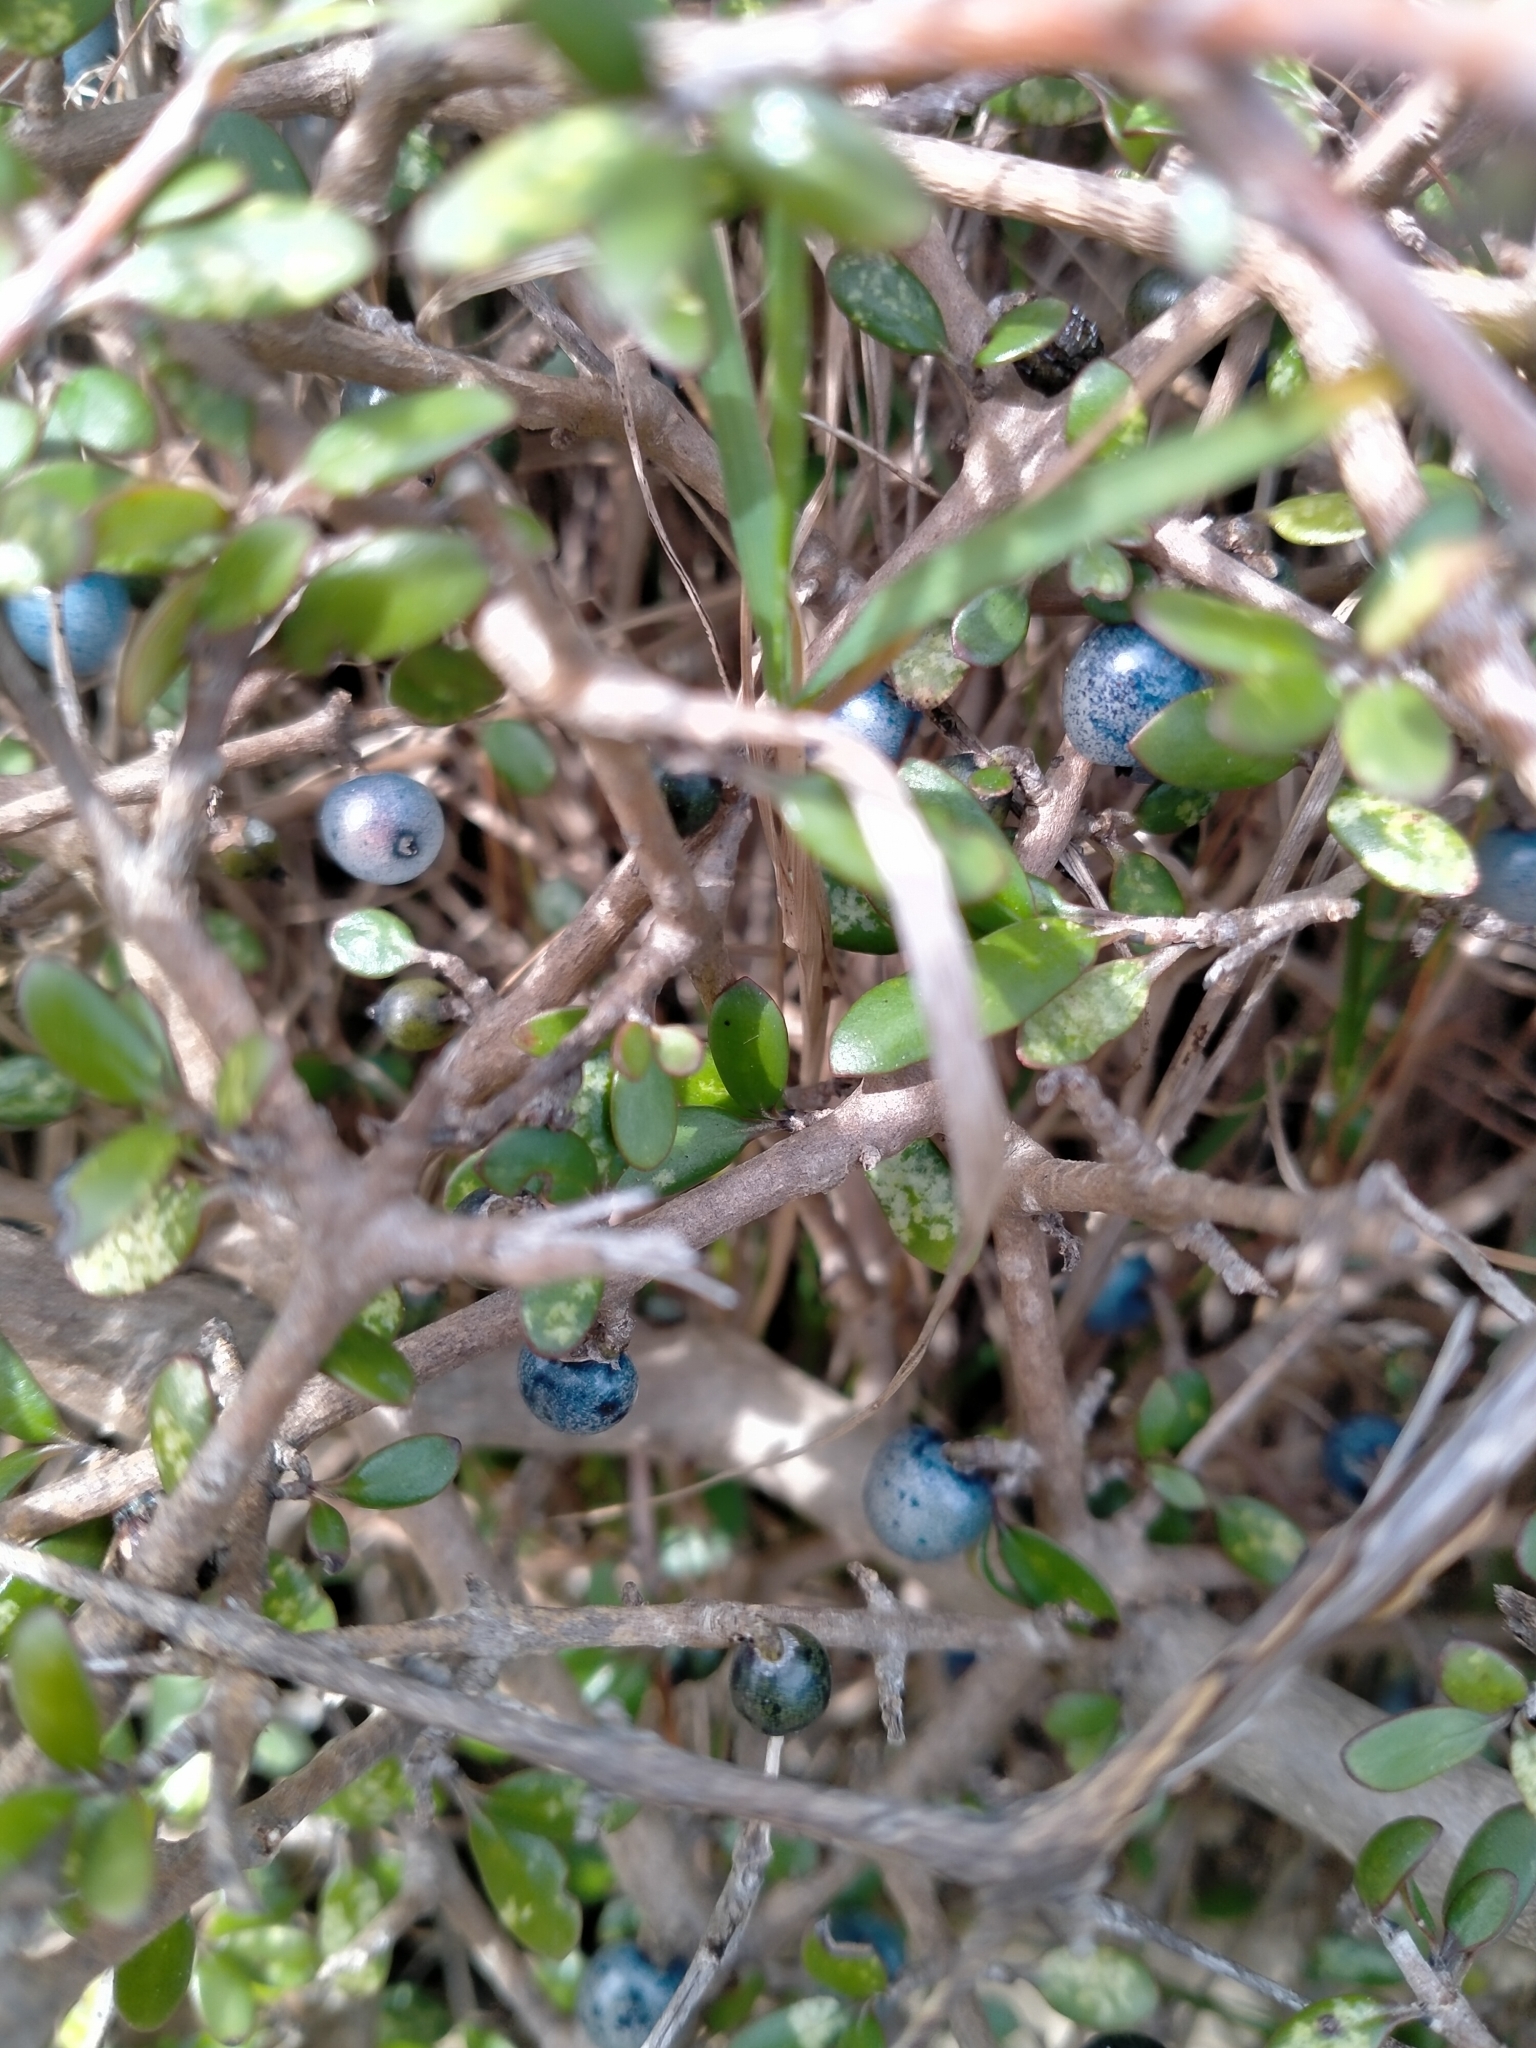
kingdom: Plantae
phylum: Tracheophyta
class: Magnoliopsida
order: Gentianales
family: Rubiaceae
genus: Coprosma
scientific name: Coprosma propinqua
